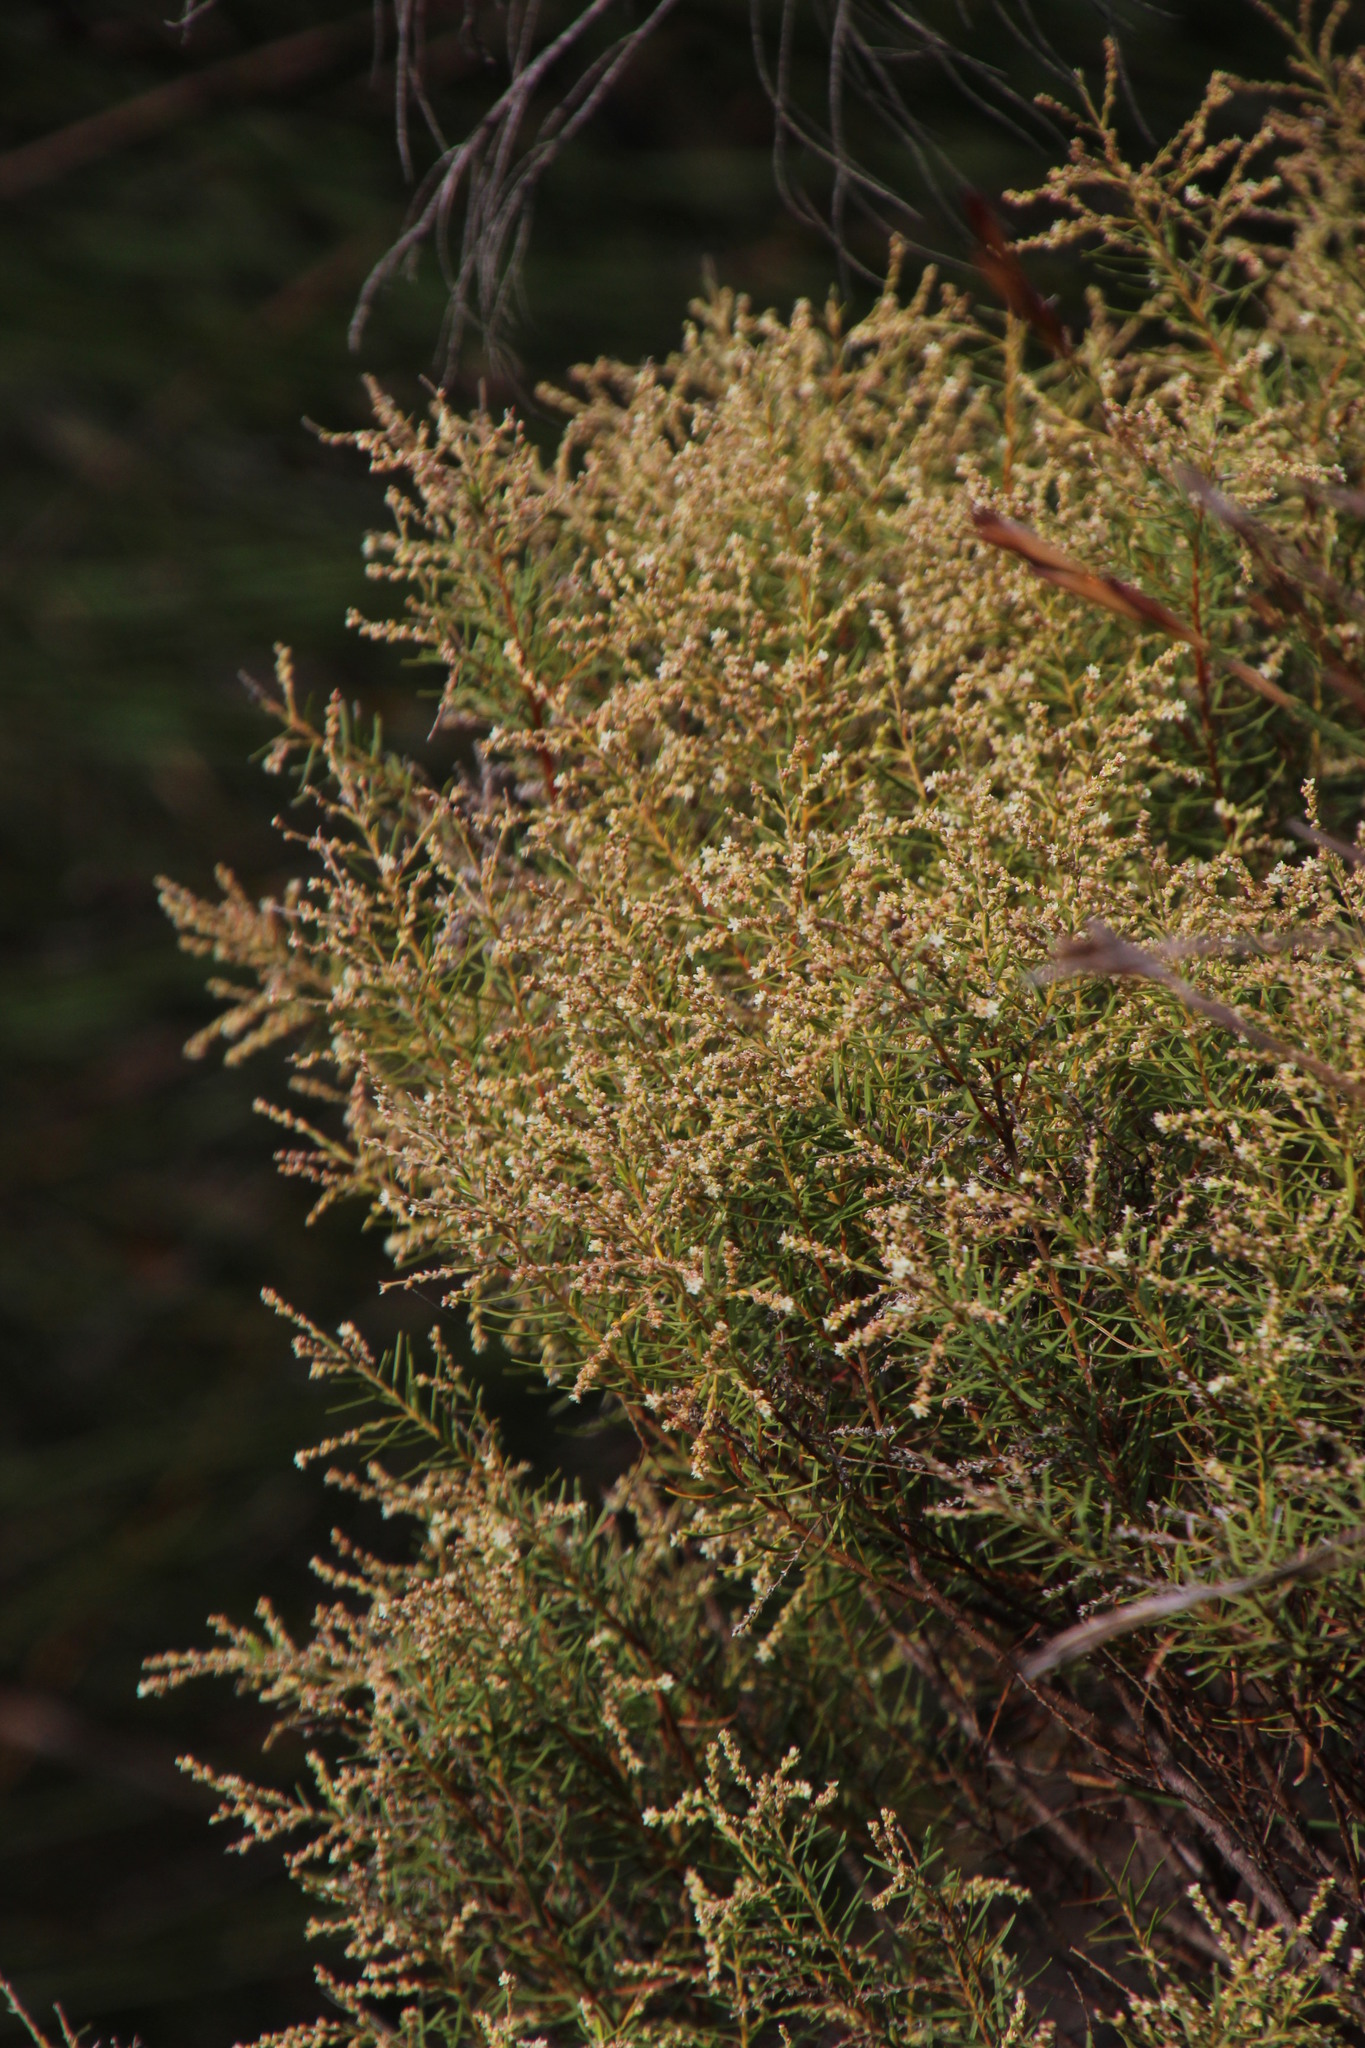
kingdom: Plantae
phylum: Tracheophyta
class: Magnoliopsida
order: Bruniales
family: Bruniaceae
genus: Brunia
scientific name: Brunia africana
